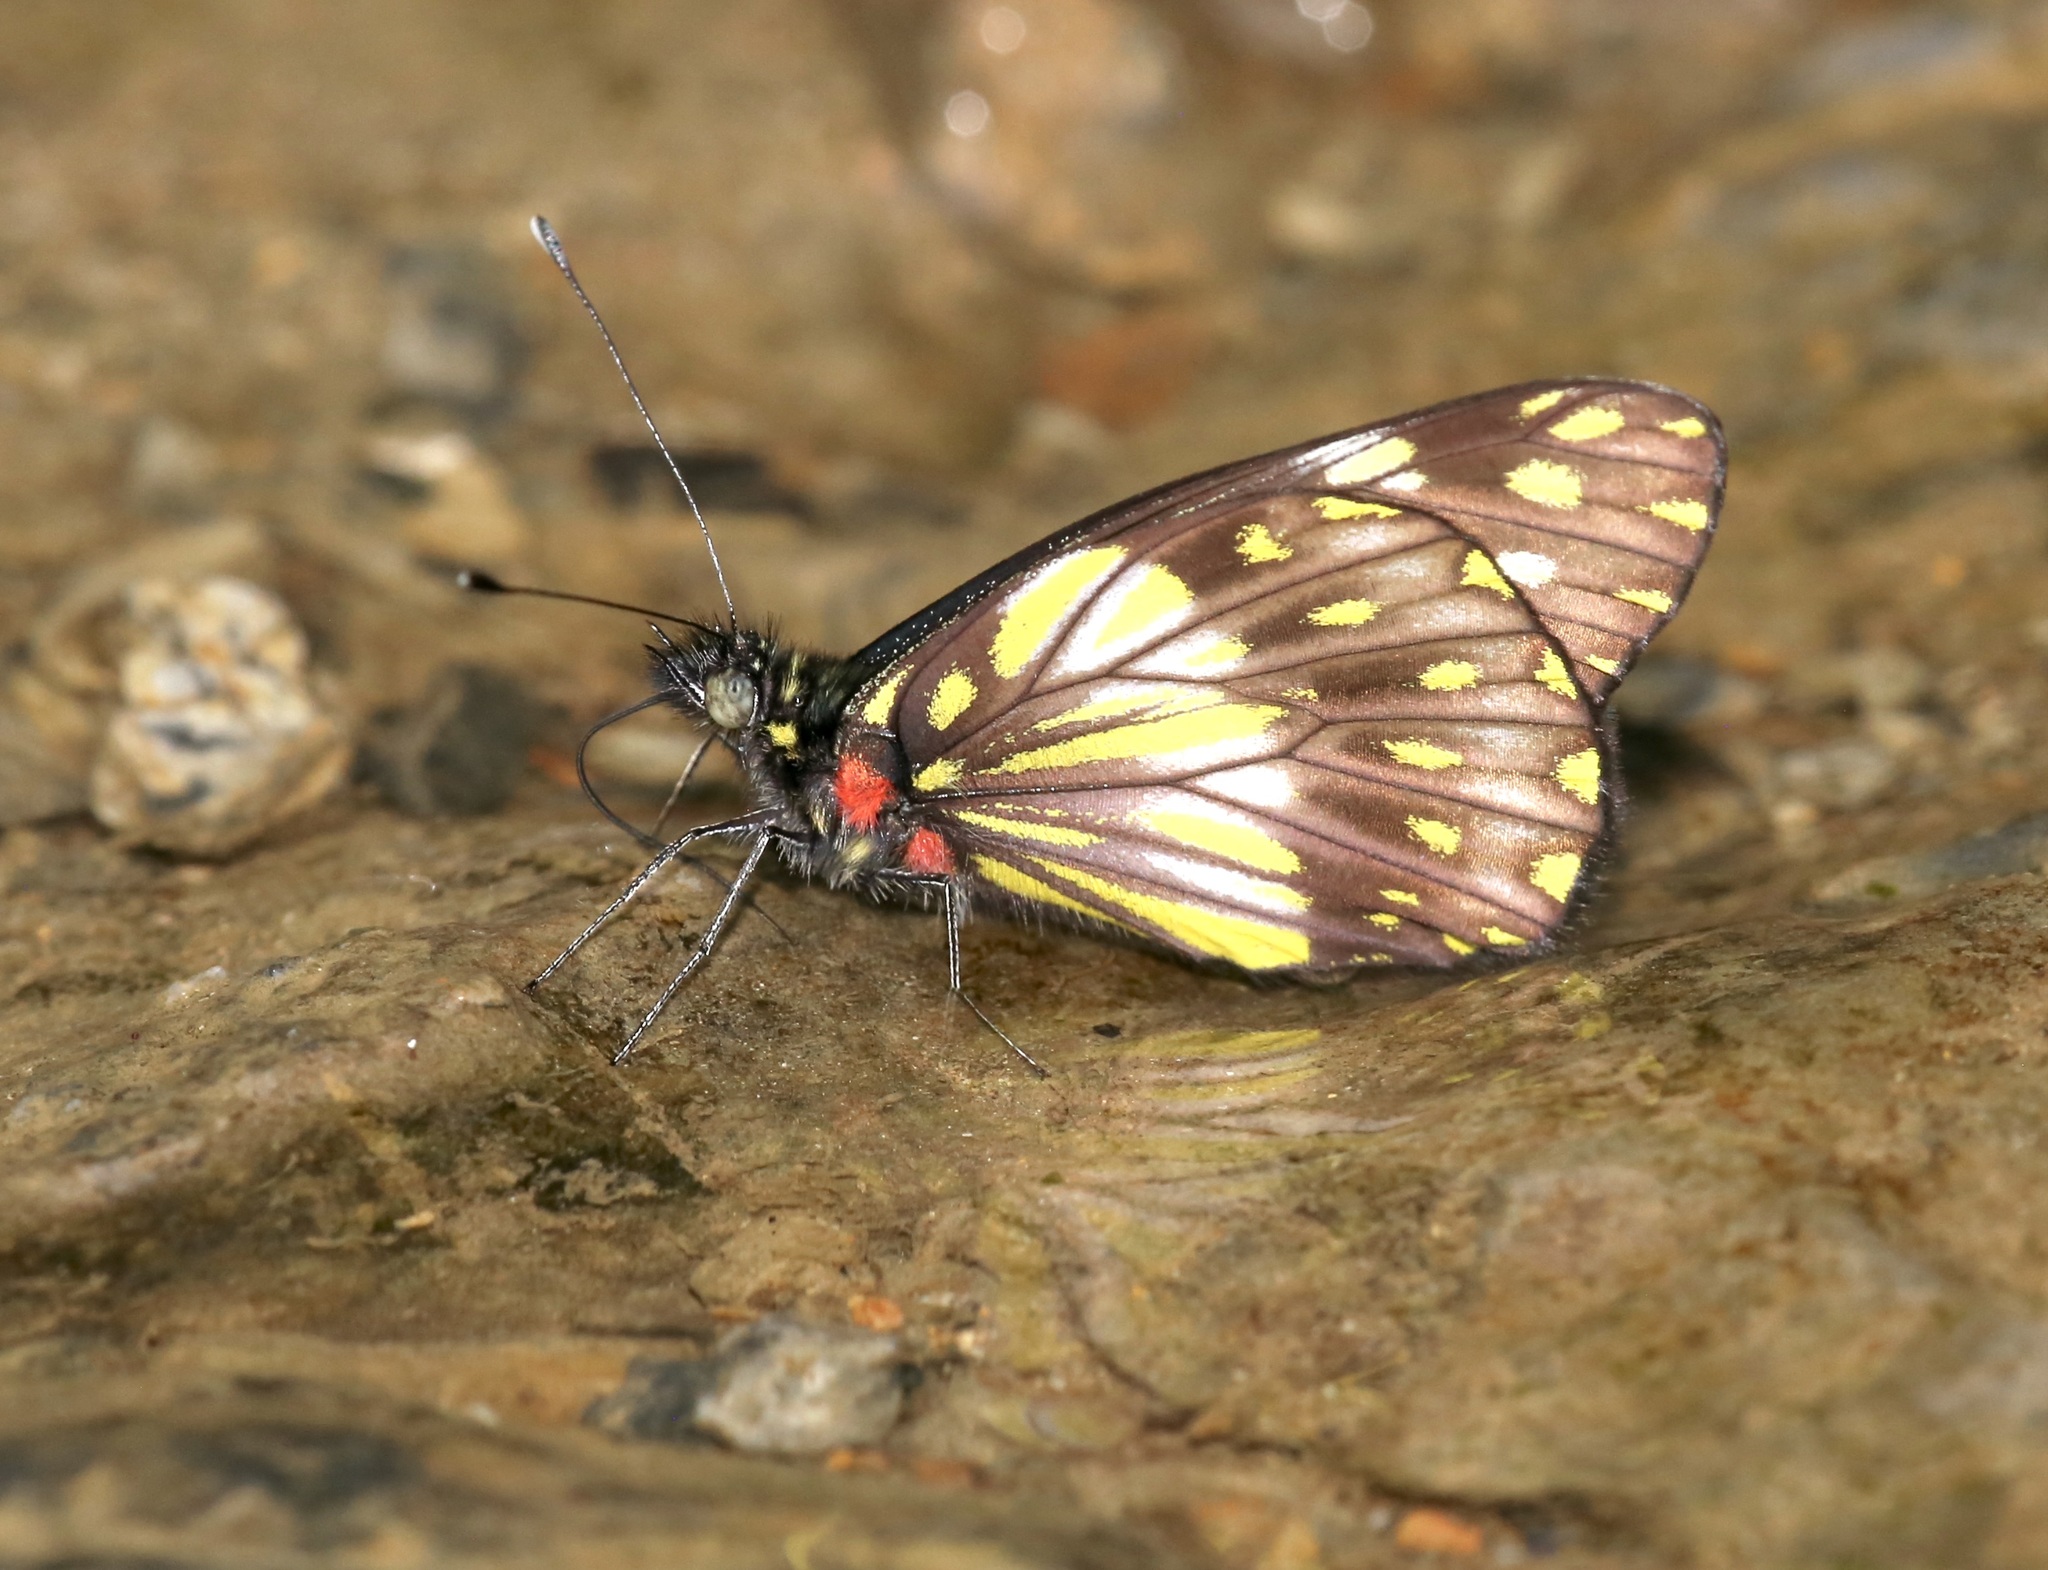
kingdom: Animalia
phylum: Arthropoda
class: Insecta
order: Lepidoptera
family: Pieridae
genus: Catasticta
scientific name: Catasticta prioneris
